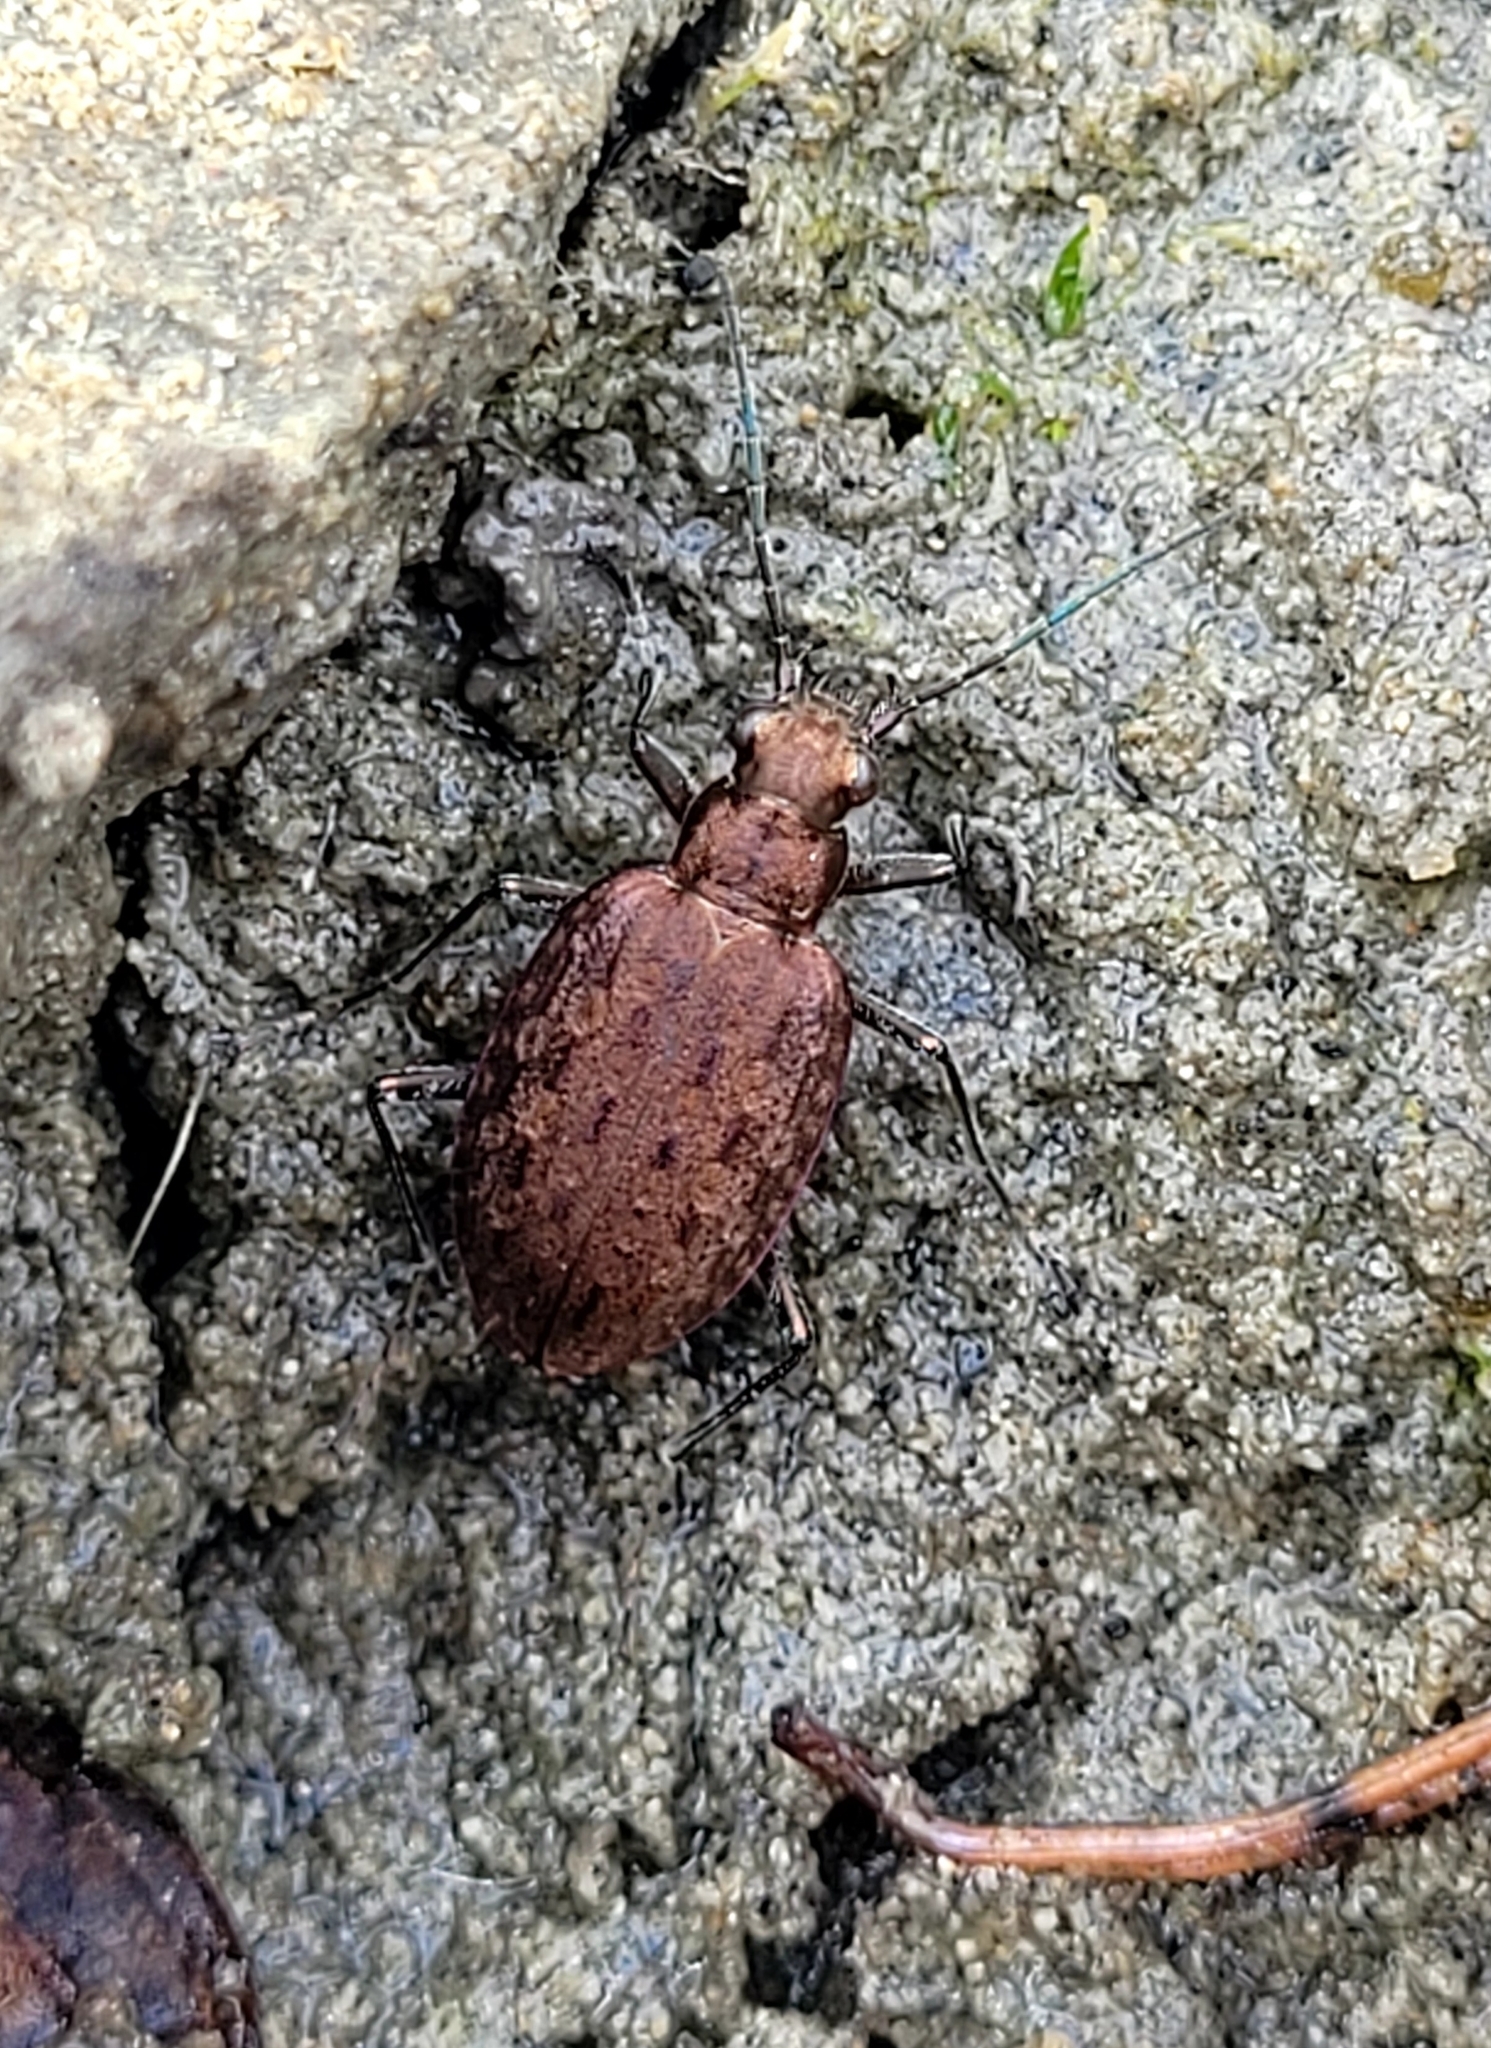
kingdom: Animalia
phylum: Arthropoda
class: Insecta
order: Coleoptera
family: Carabidae
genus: Opisthius
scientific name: Opisthius richardsoni
